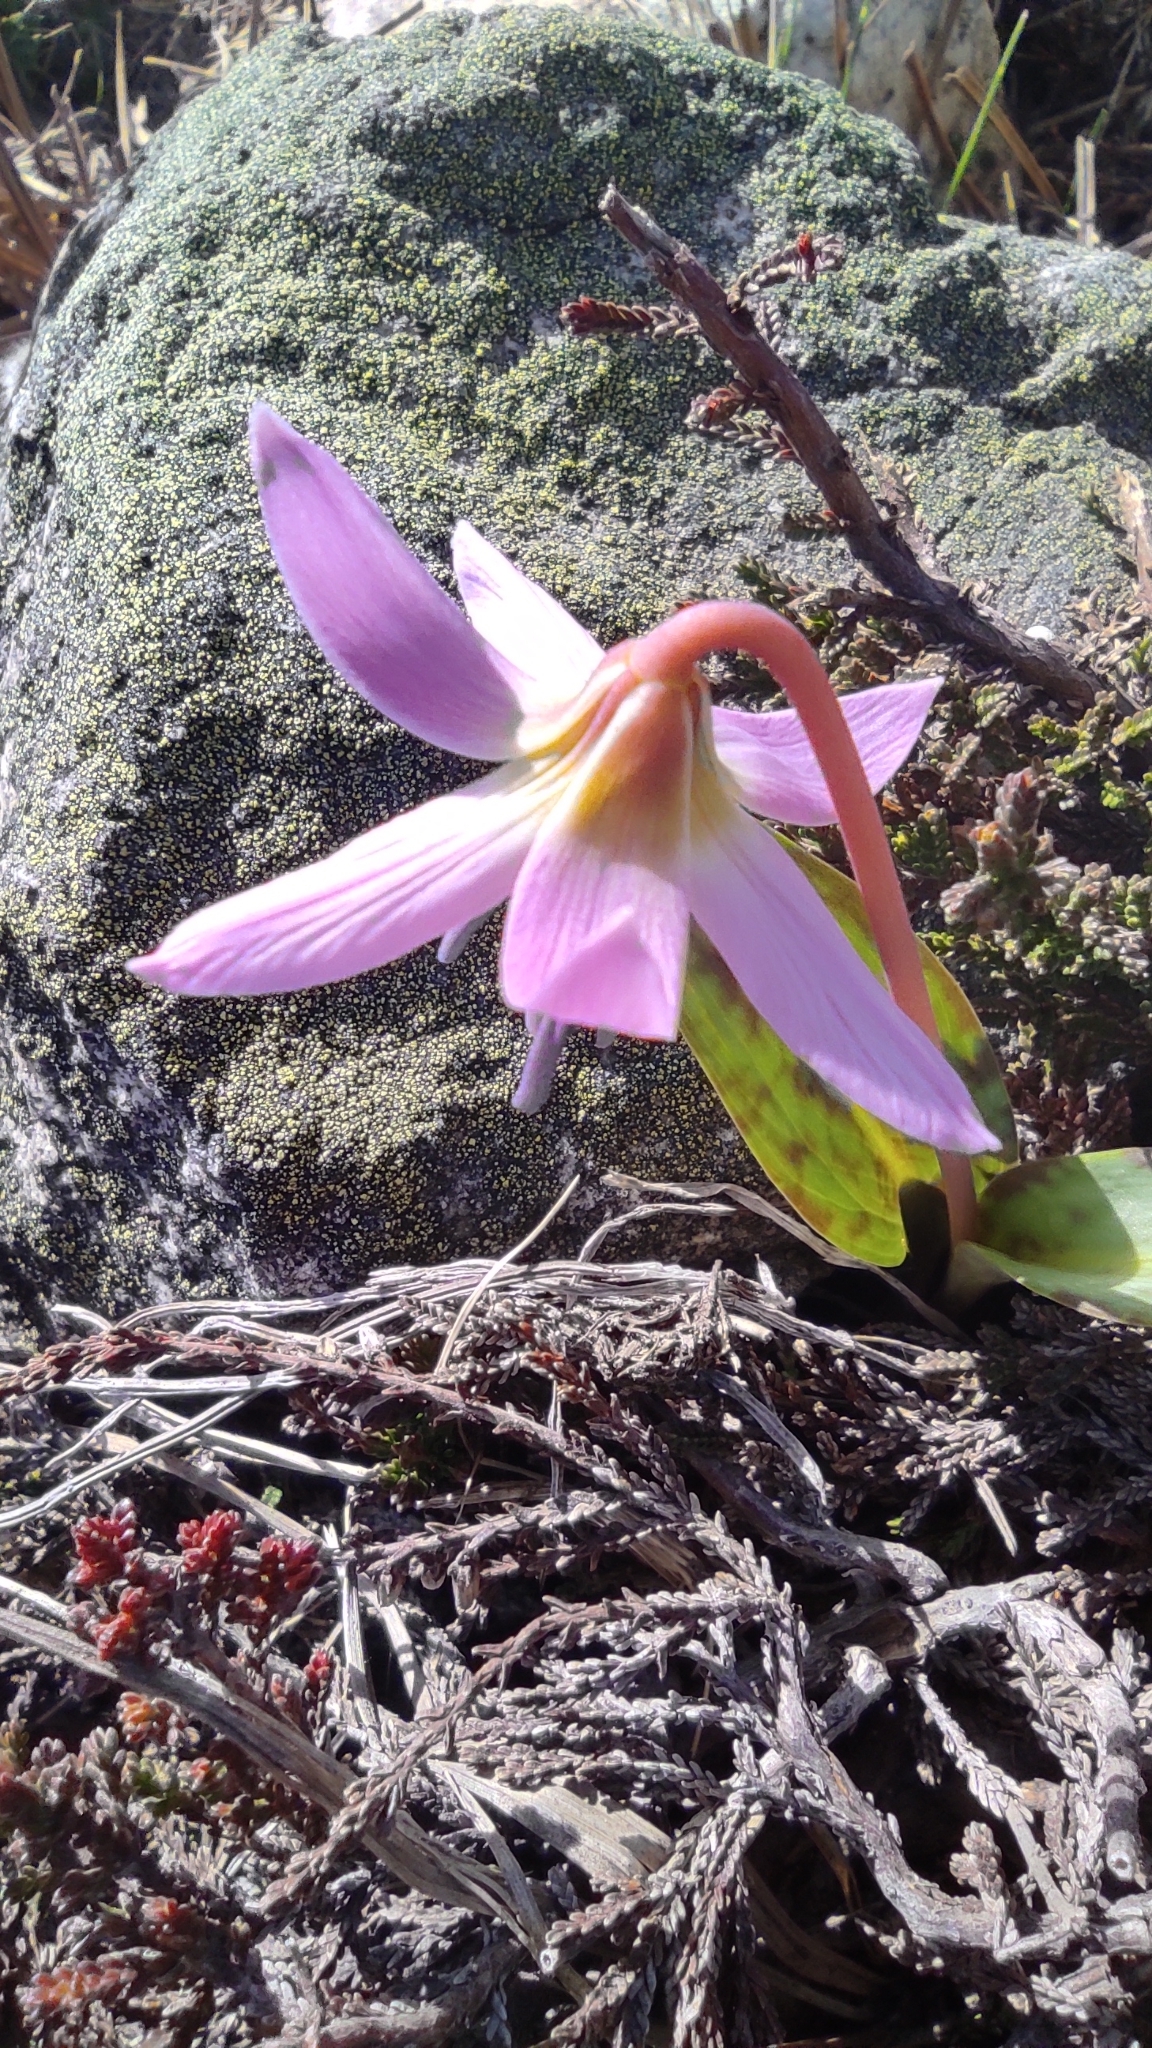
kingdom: Plantae
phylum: Tracheophyta
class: Liliopsida
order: Liliales
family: Liliaceae
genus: Erythronium
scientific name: Erythronium dens-canis
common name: Dog's-tooth-violet
